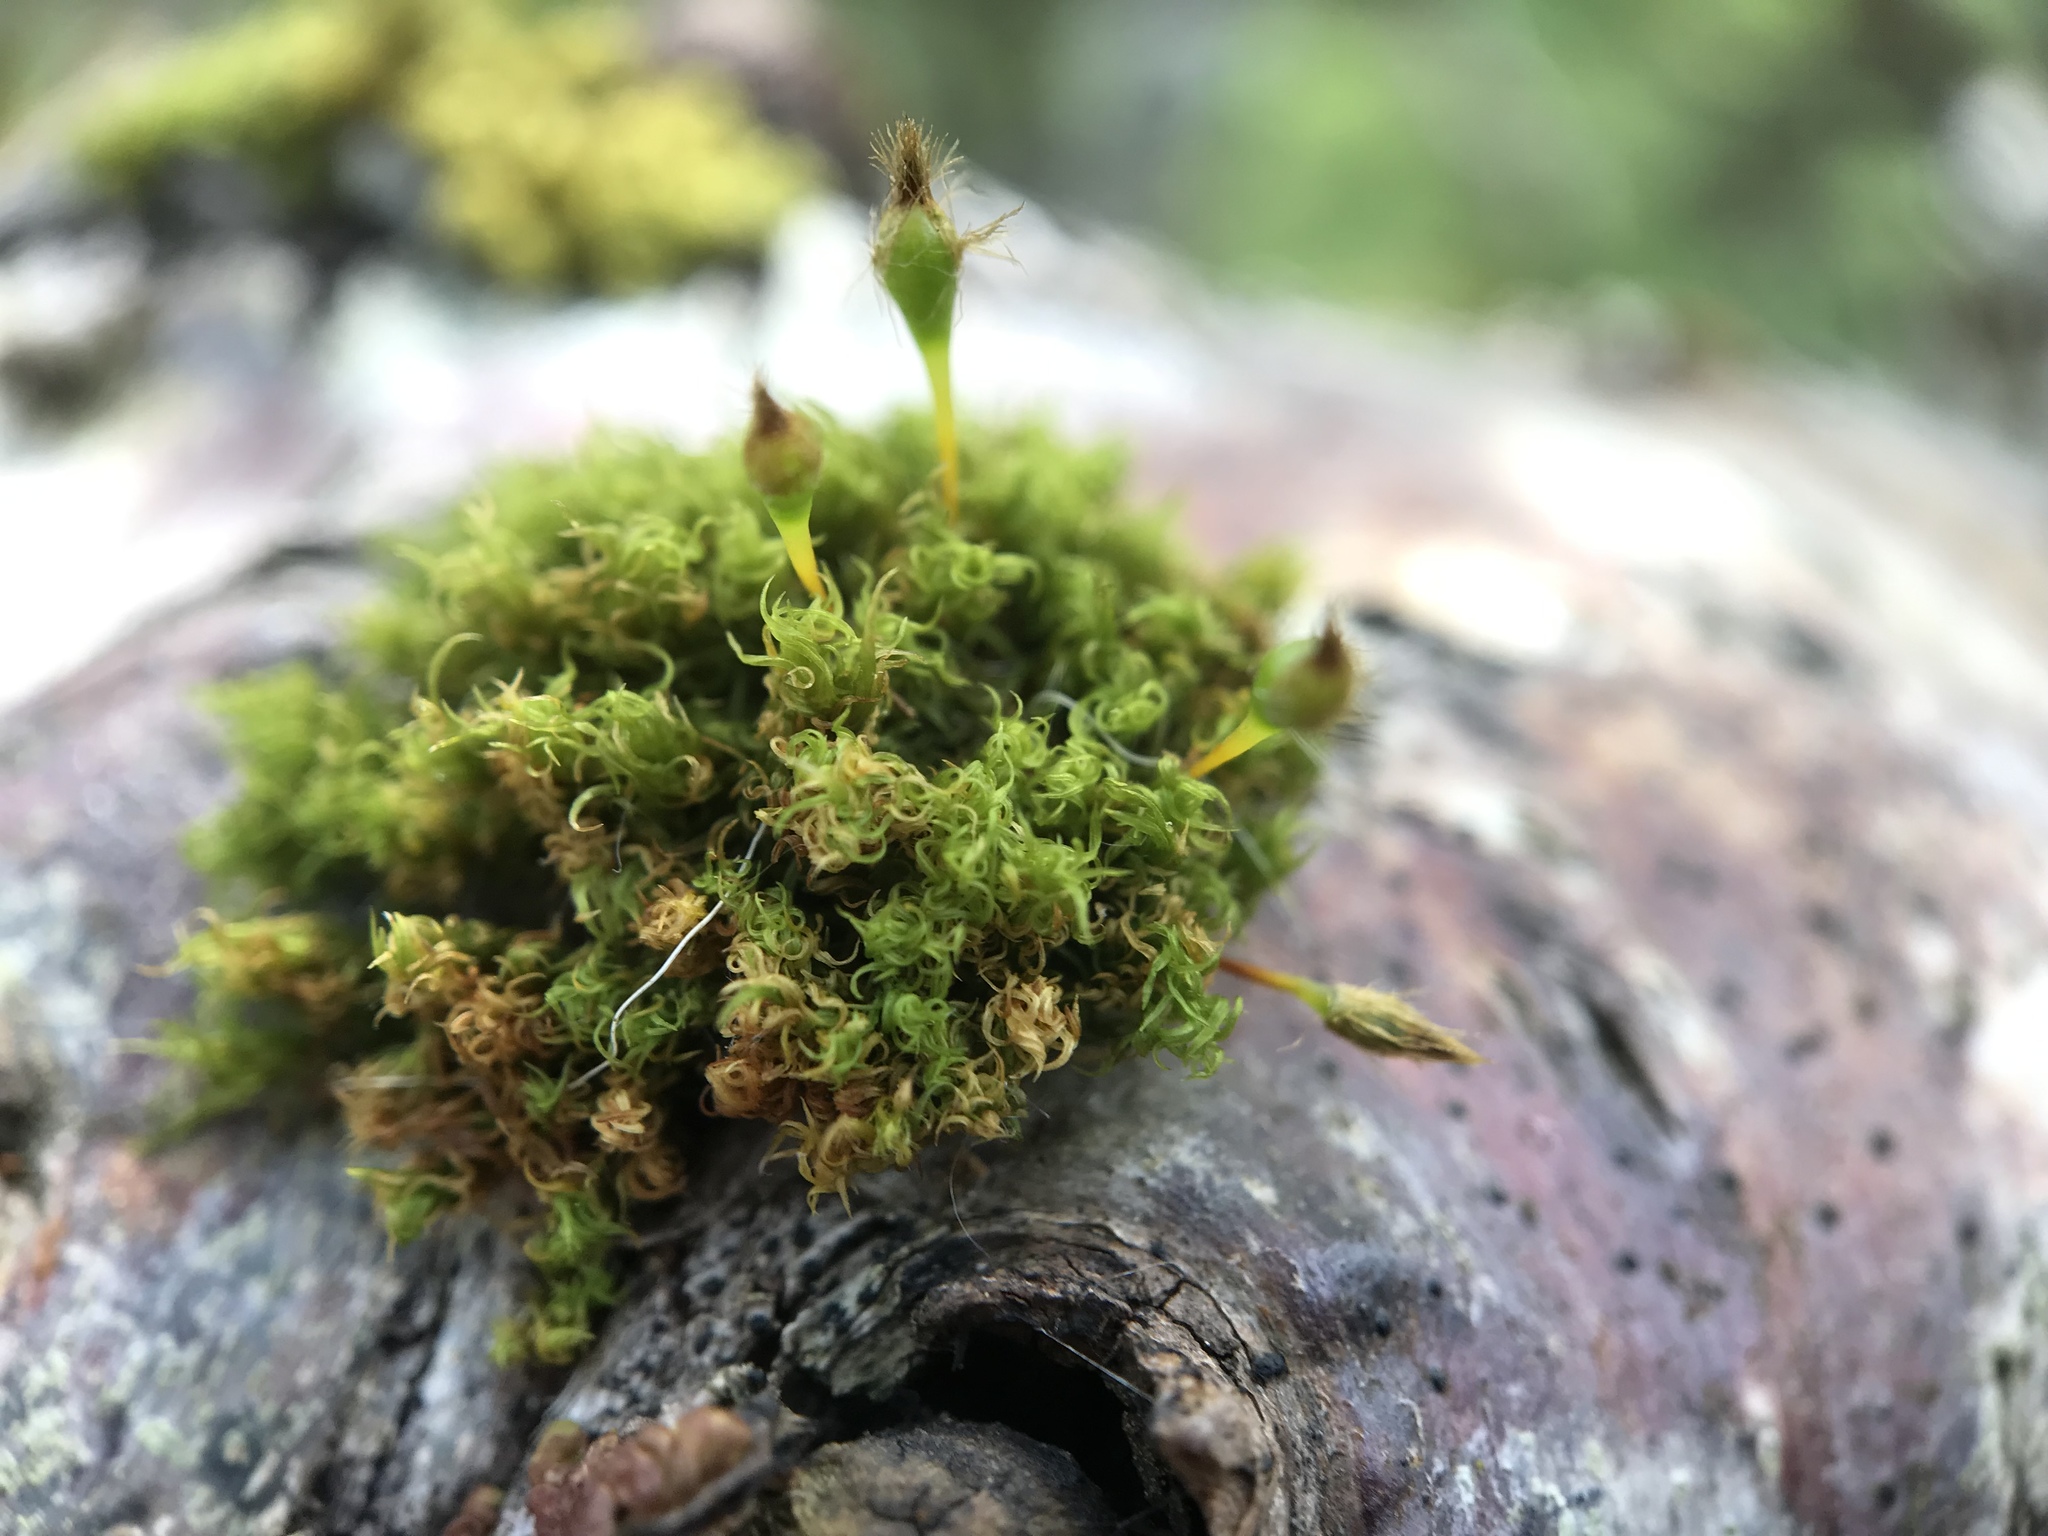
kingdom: Plantae
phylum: Bryophyta
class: Bryopsida
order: Orthotrichales
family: Orthotrichaceae
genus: Ulota
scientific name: Ulota coarctata
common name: Club pincushion moss
